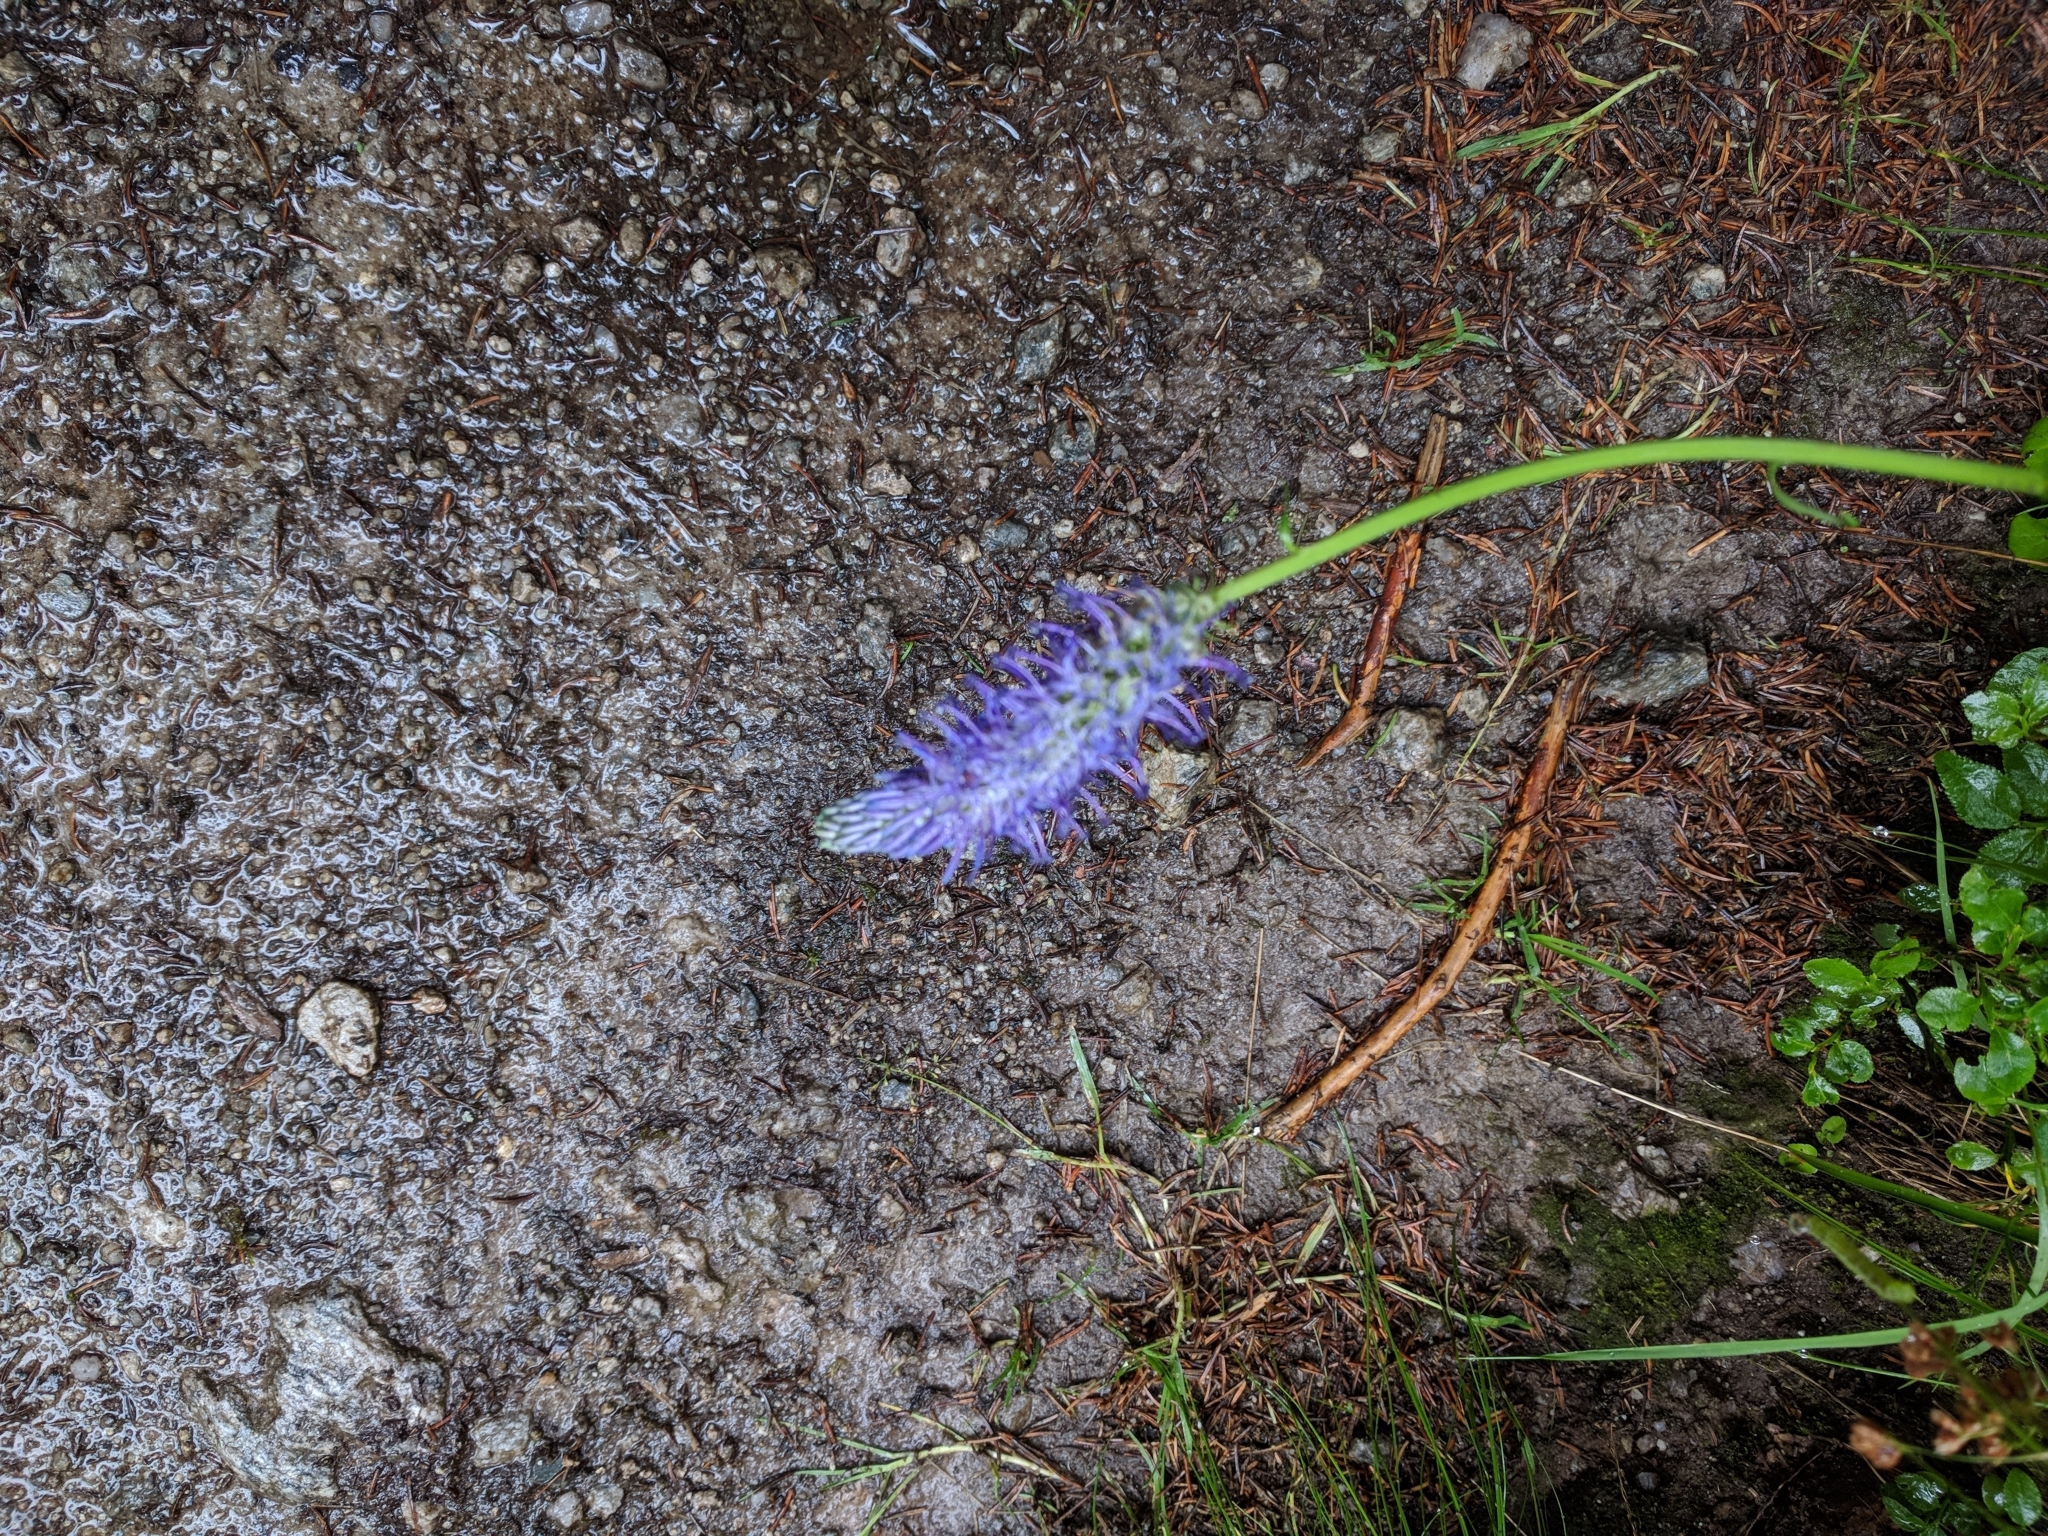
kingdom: Plantae
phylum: Tracheophyta
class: Magnoliopsida
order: Asterales
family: Campanulaceae
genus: Phyteuma
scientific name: Phyteuma betonicifolium
